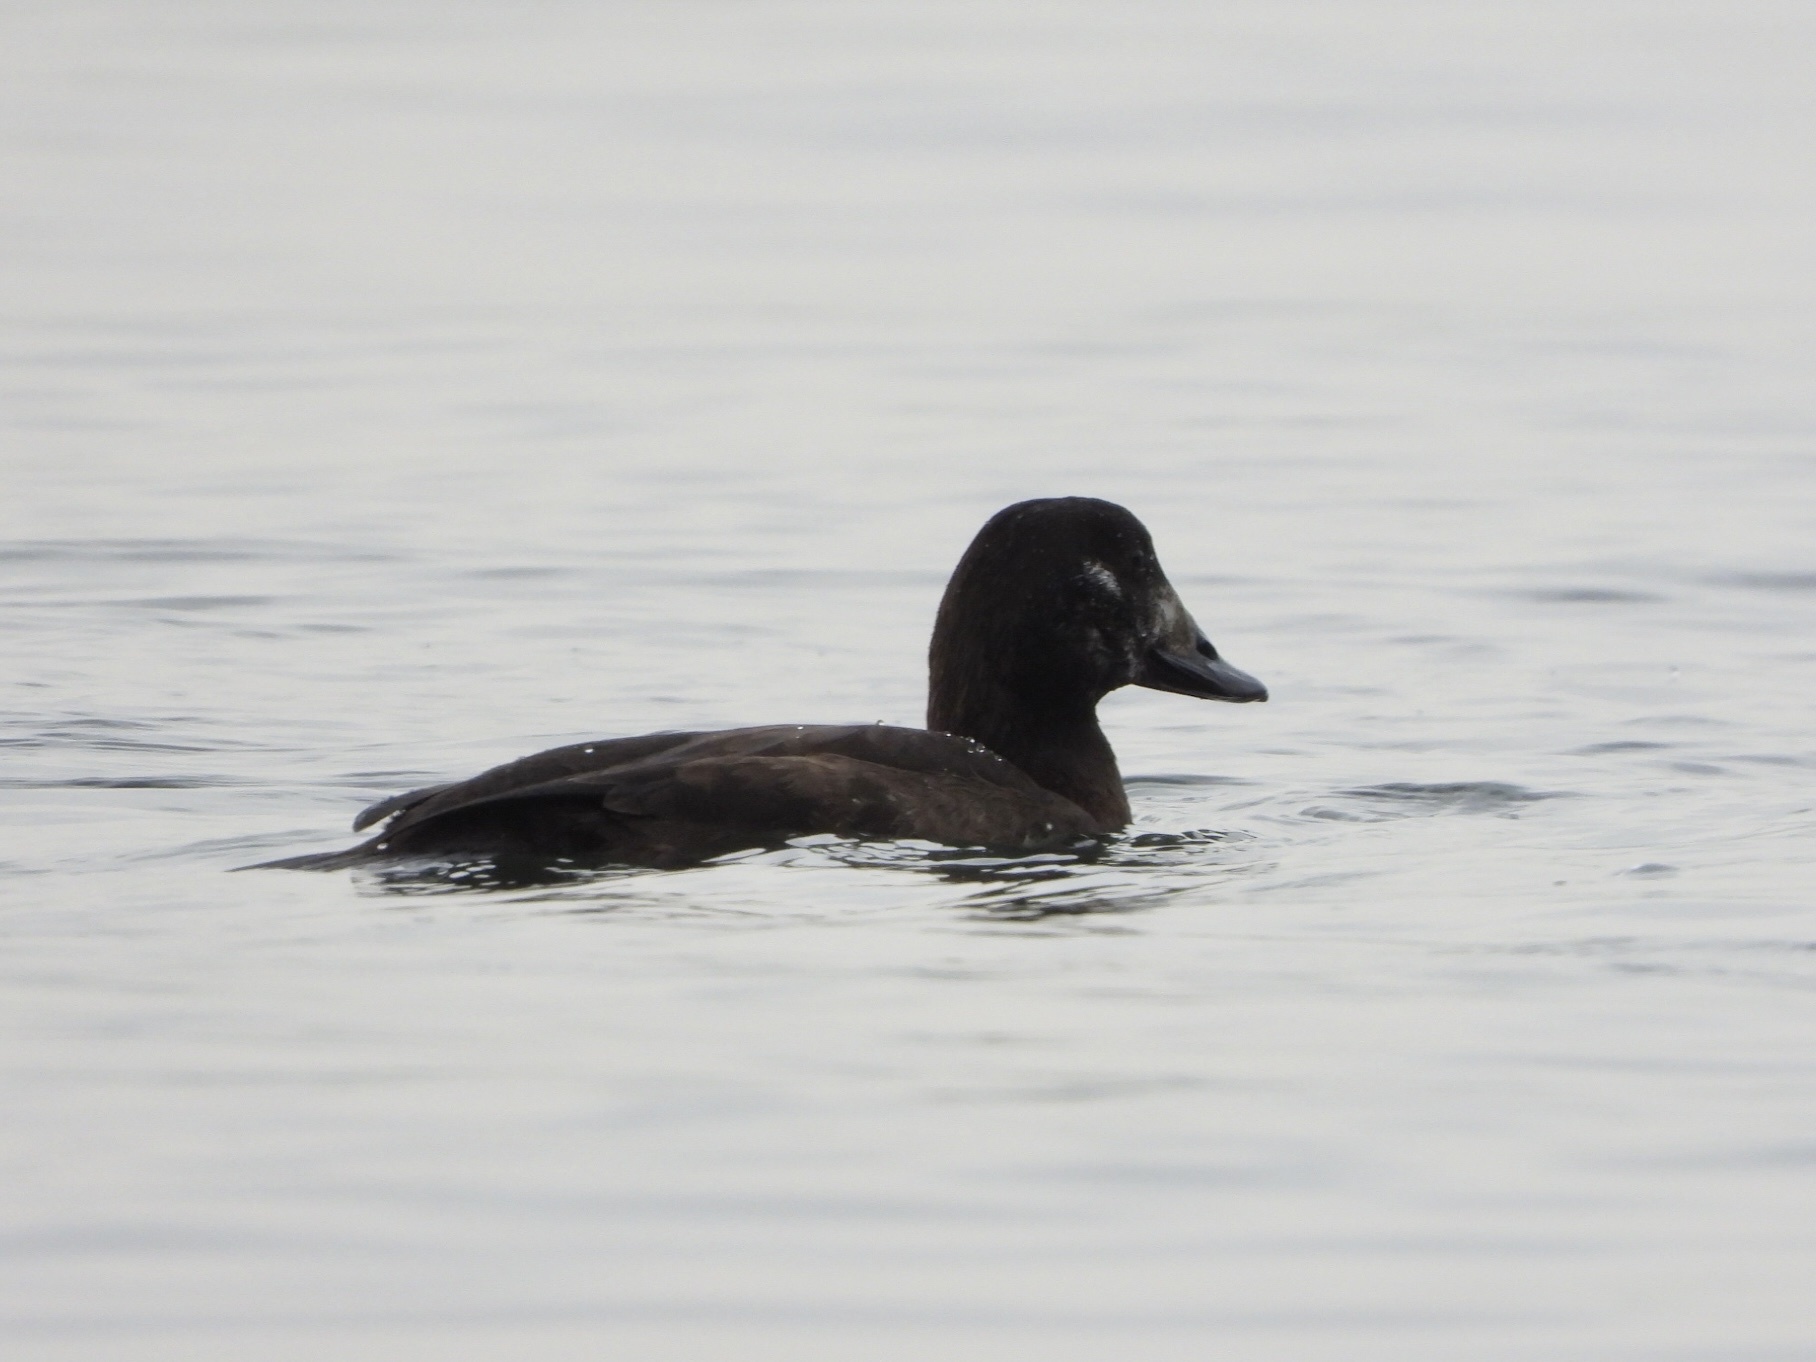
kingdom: Animalia
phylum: Chordata
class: Aves
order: Anseriformes
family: Anatidae
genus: Melanitta
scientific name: Melanitta deglandi
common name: White-winged scoter
